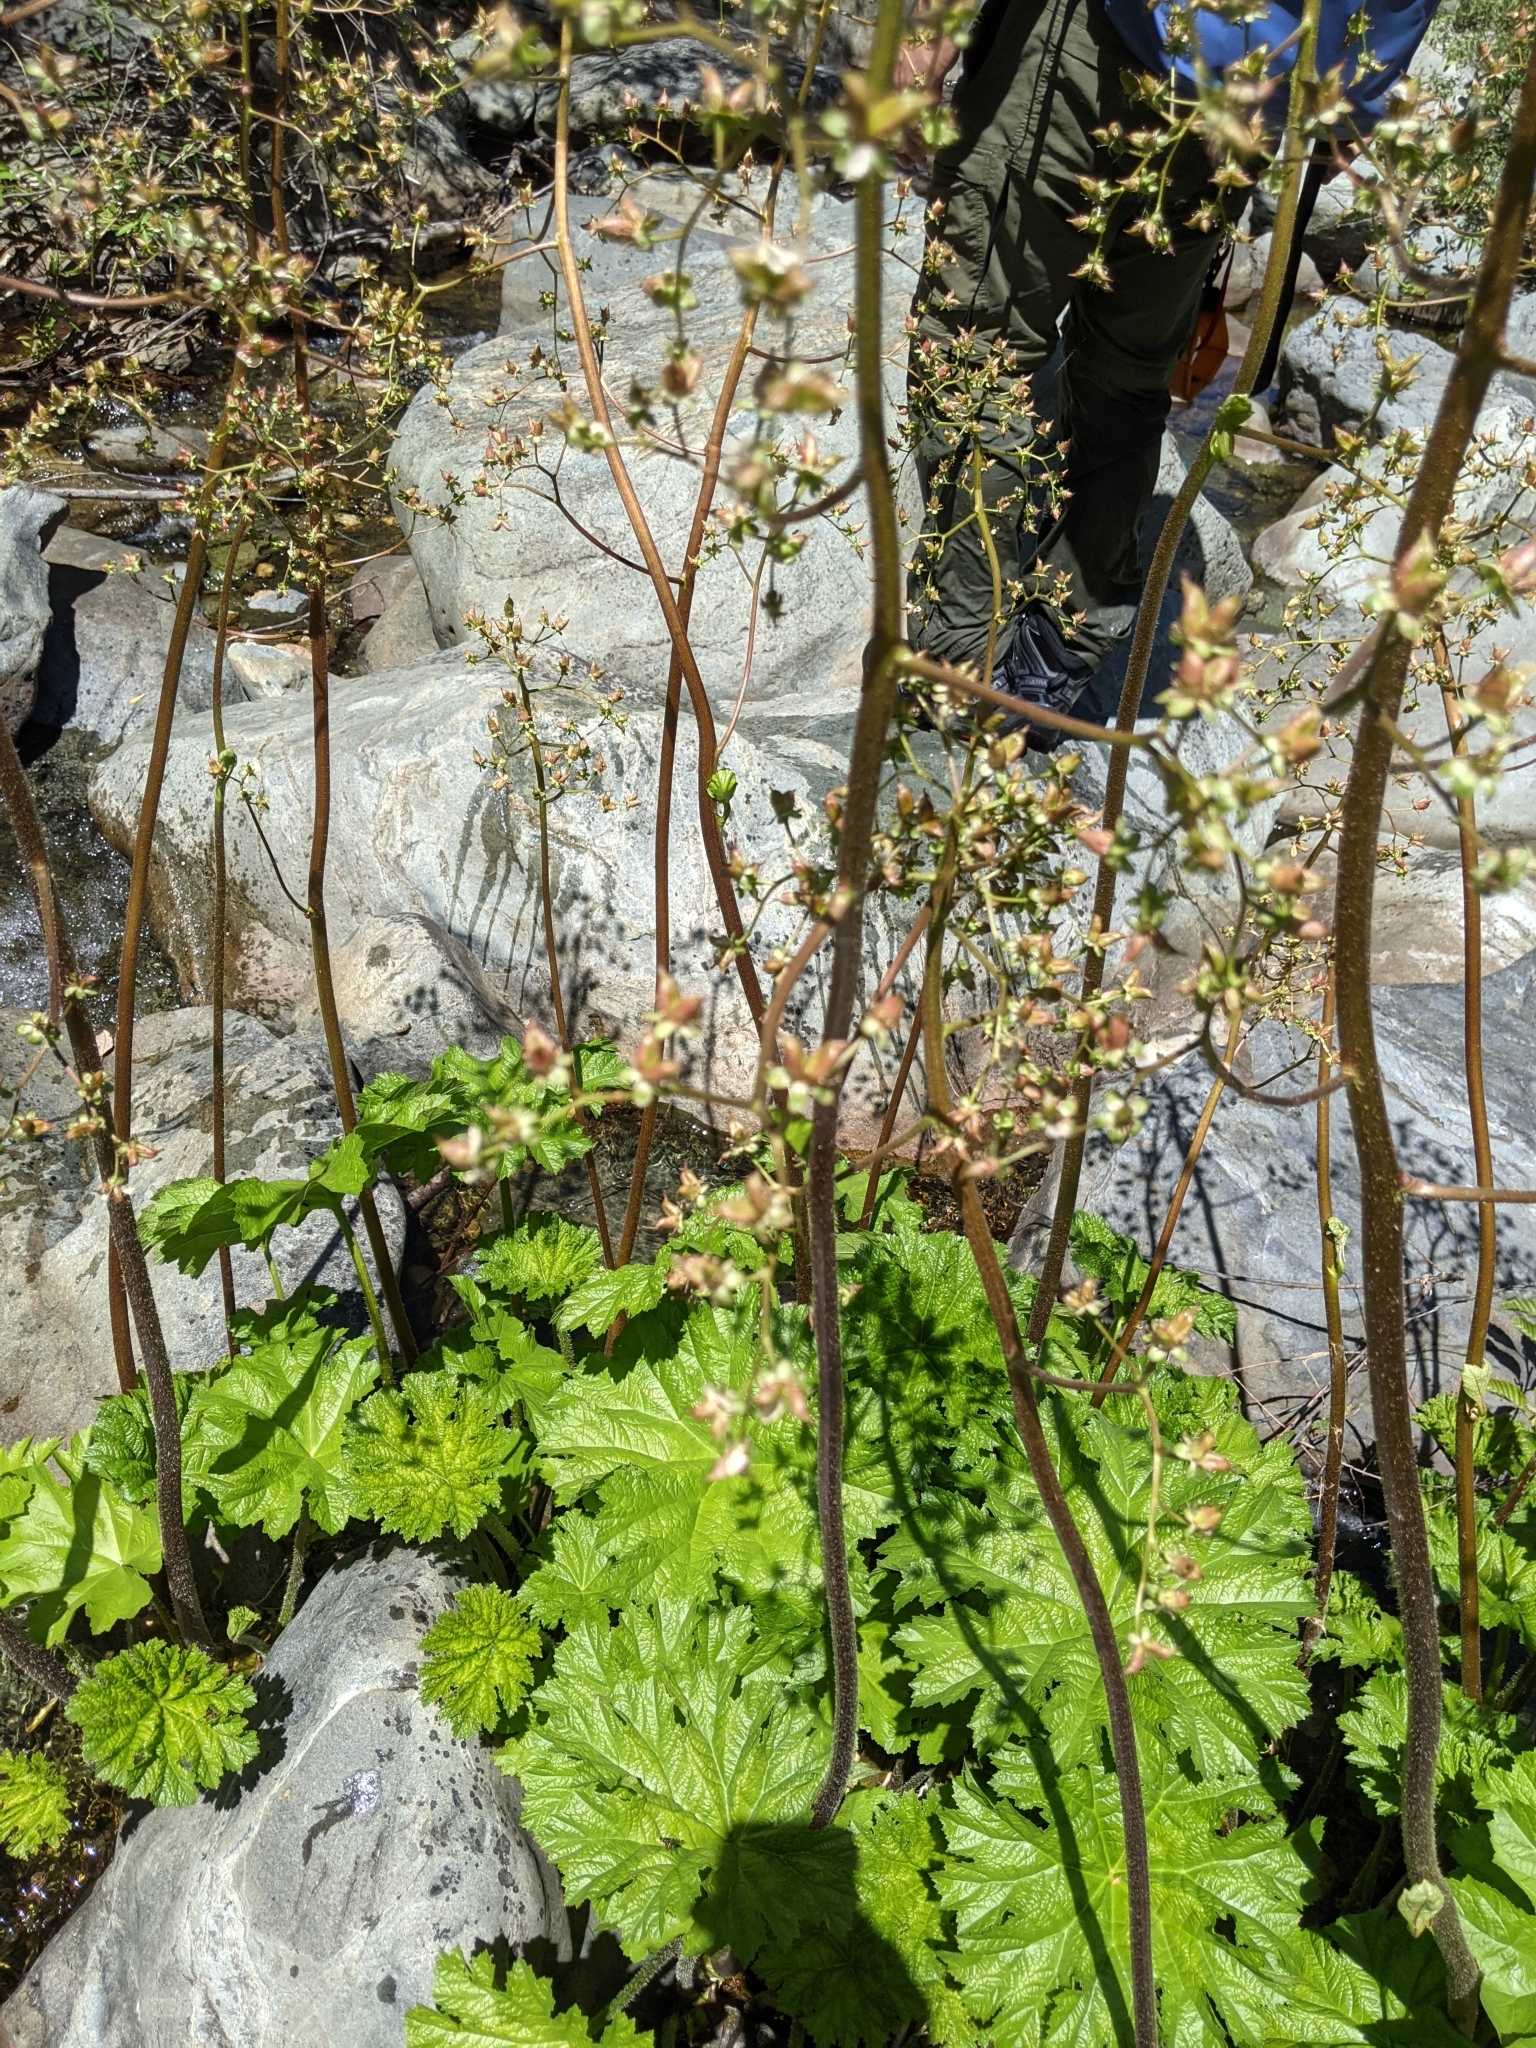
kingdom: Plantae
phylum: Tracheophyta
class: Magnoliopsida
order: Saxifragales
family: Saxifragaceae
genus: Darmera
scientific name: Darmera peltata
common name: Indian-rhubarb
